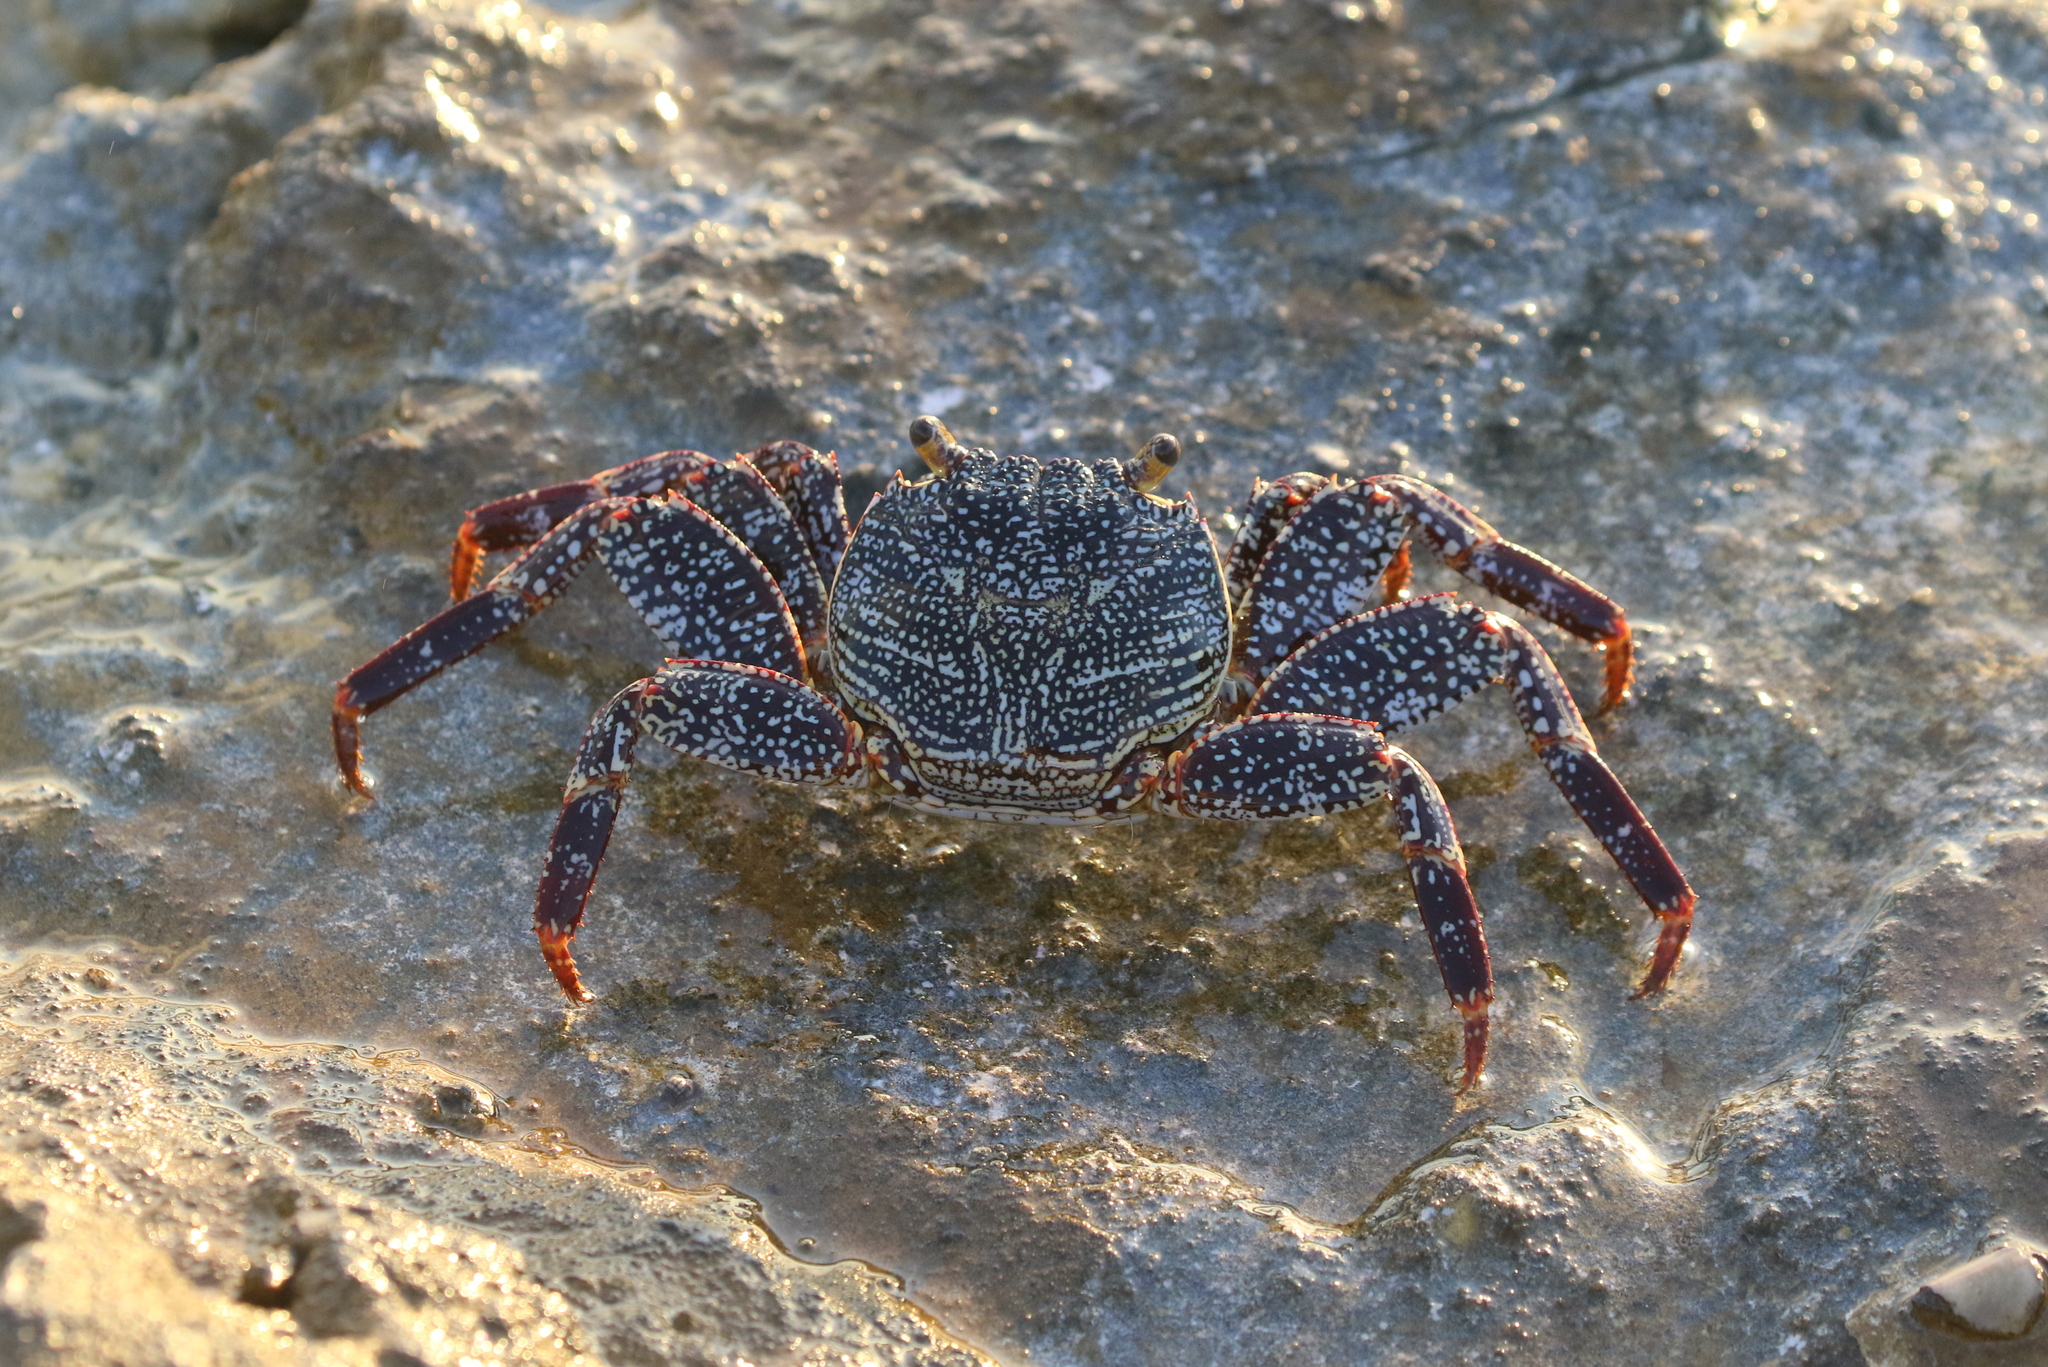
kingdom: Animalia
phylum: Arthropoda
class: Malacostraca
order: Decapoda
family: Grapsidae
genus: Grapsus
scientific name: Grapsus grapsus
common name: Sally lightfoot
